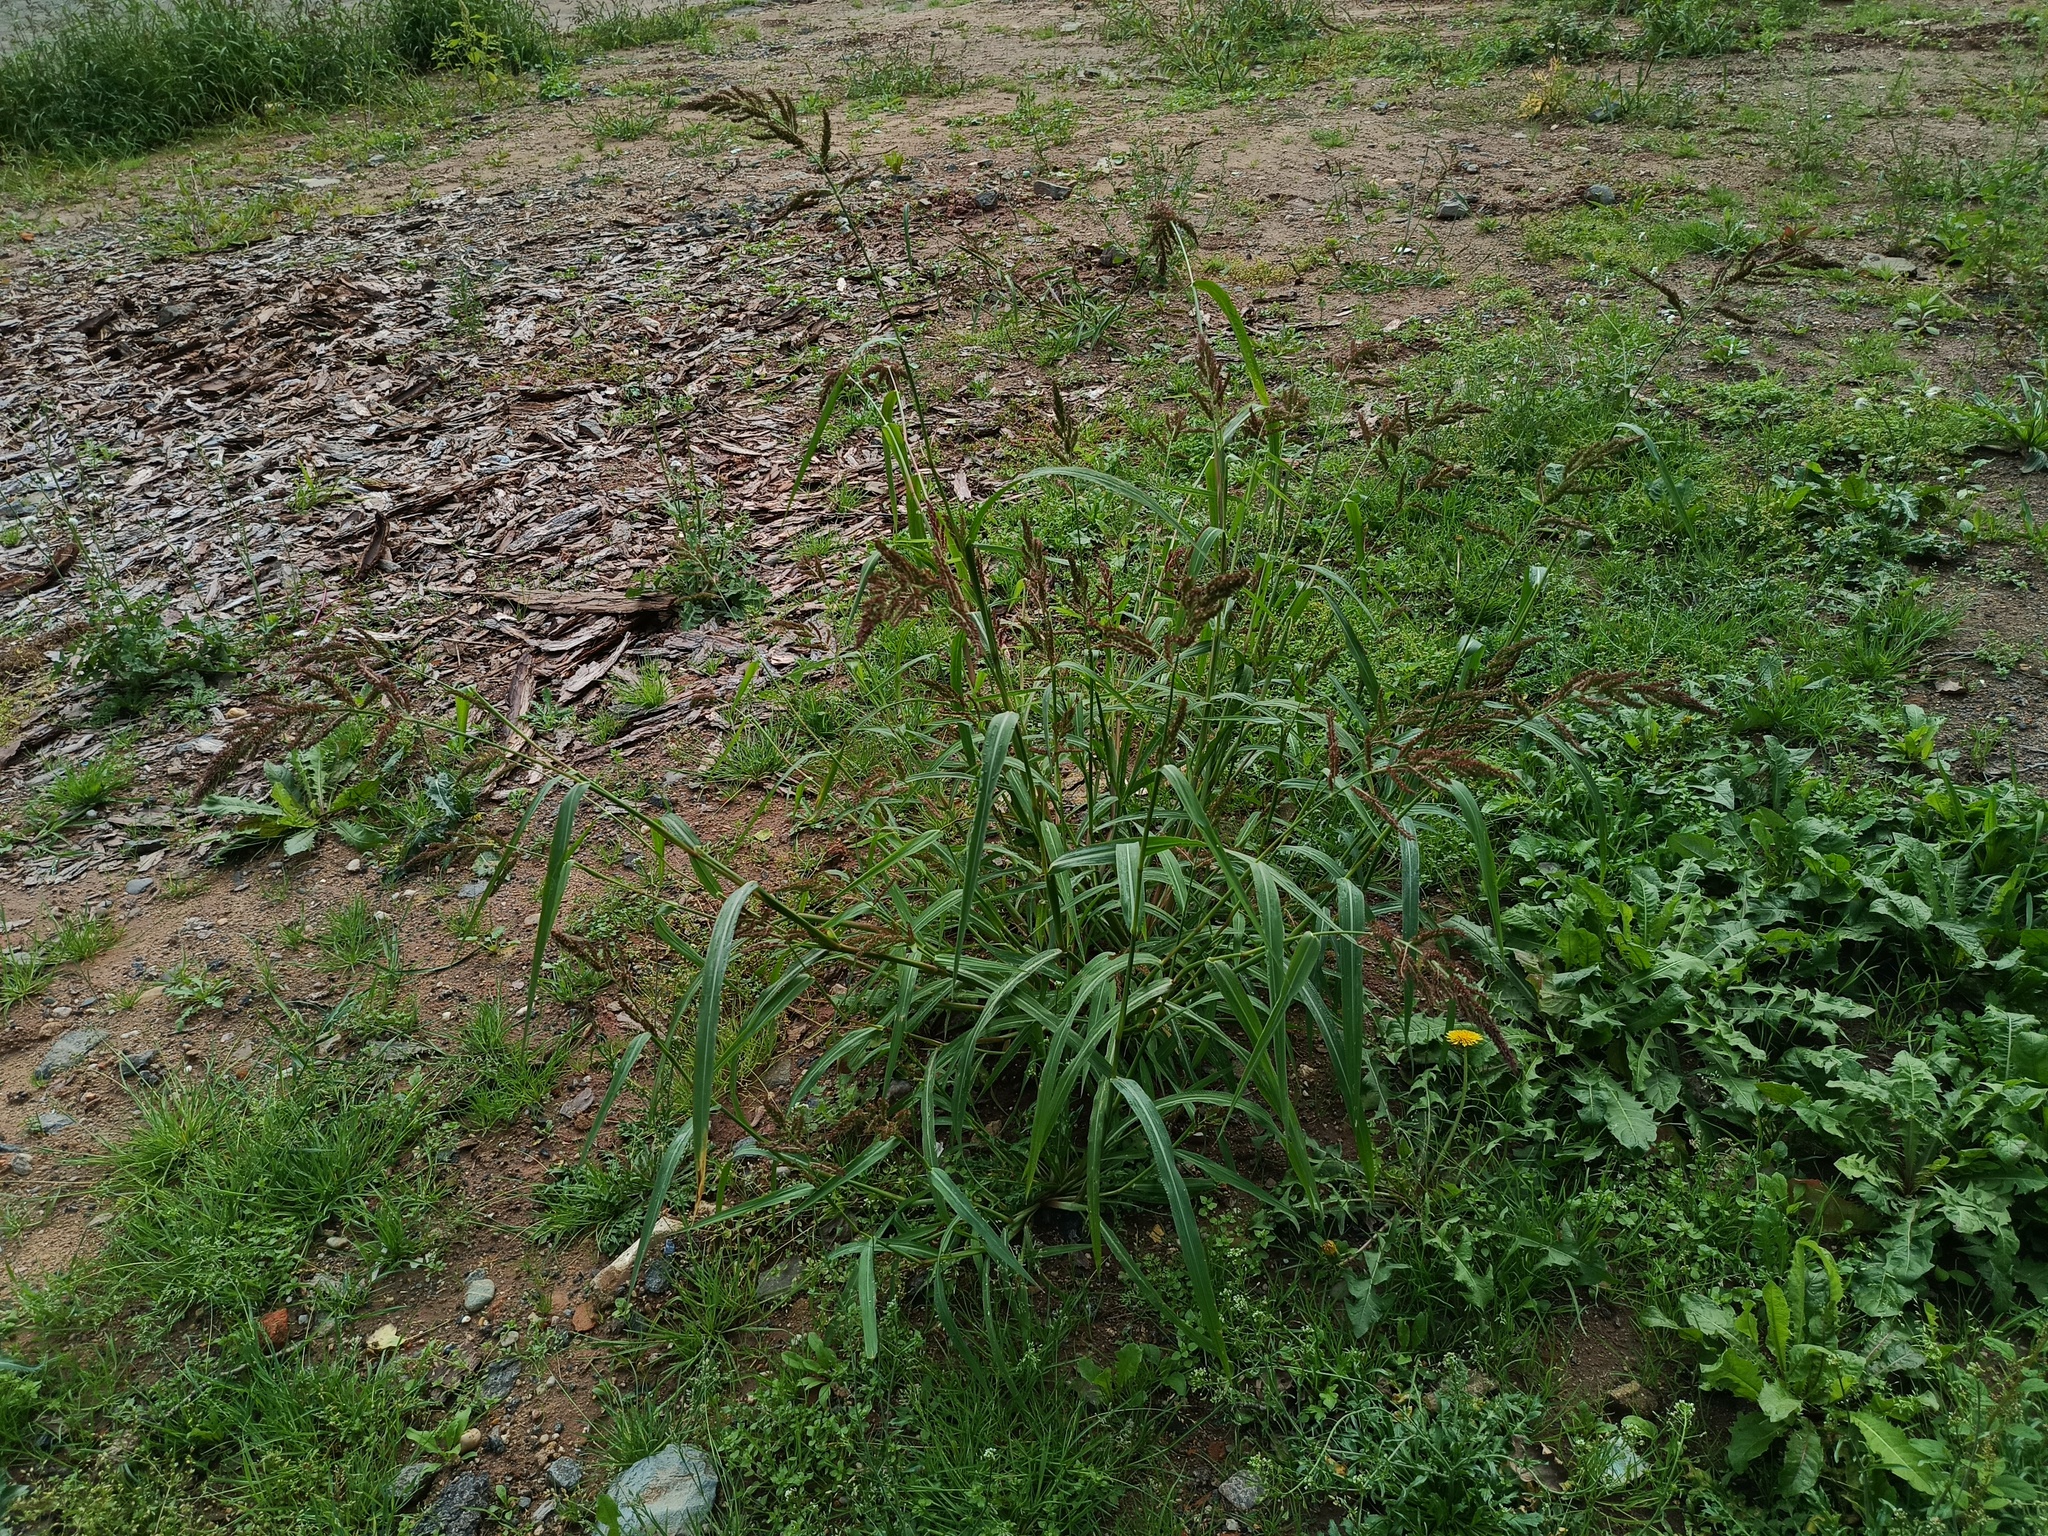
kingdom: Plantae
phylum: Tracheophyta
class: Liliopsida
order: Poales
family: Poaceae
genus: Echinochloa
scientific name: Echinochloa crus-galli
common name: Cockspur
